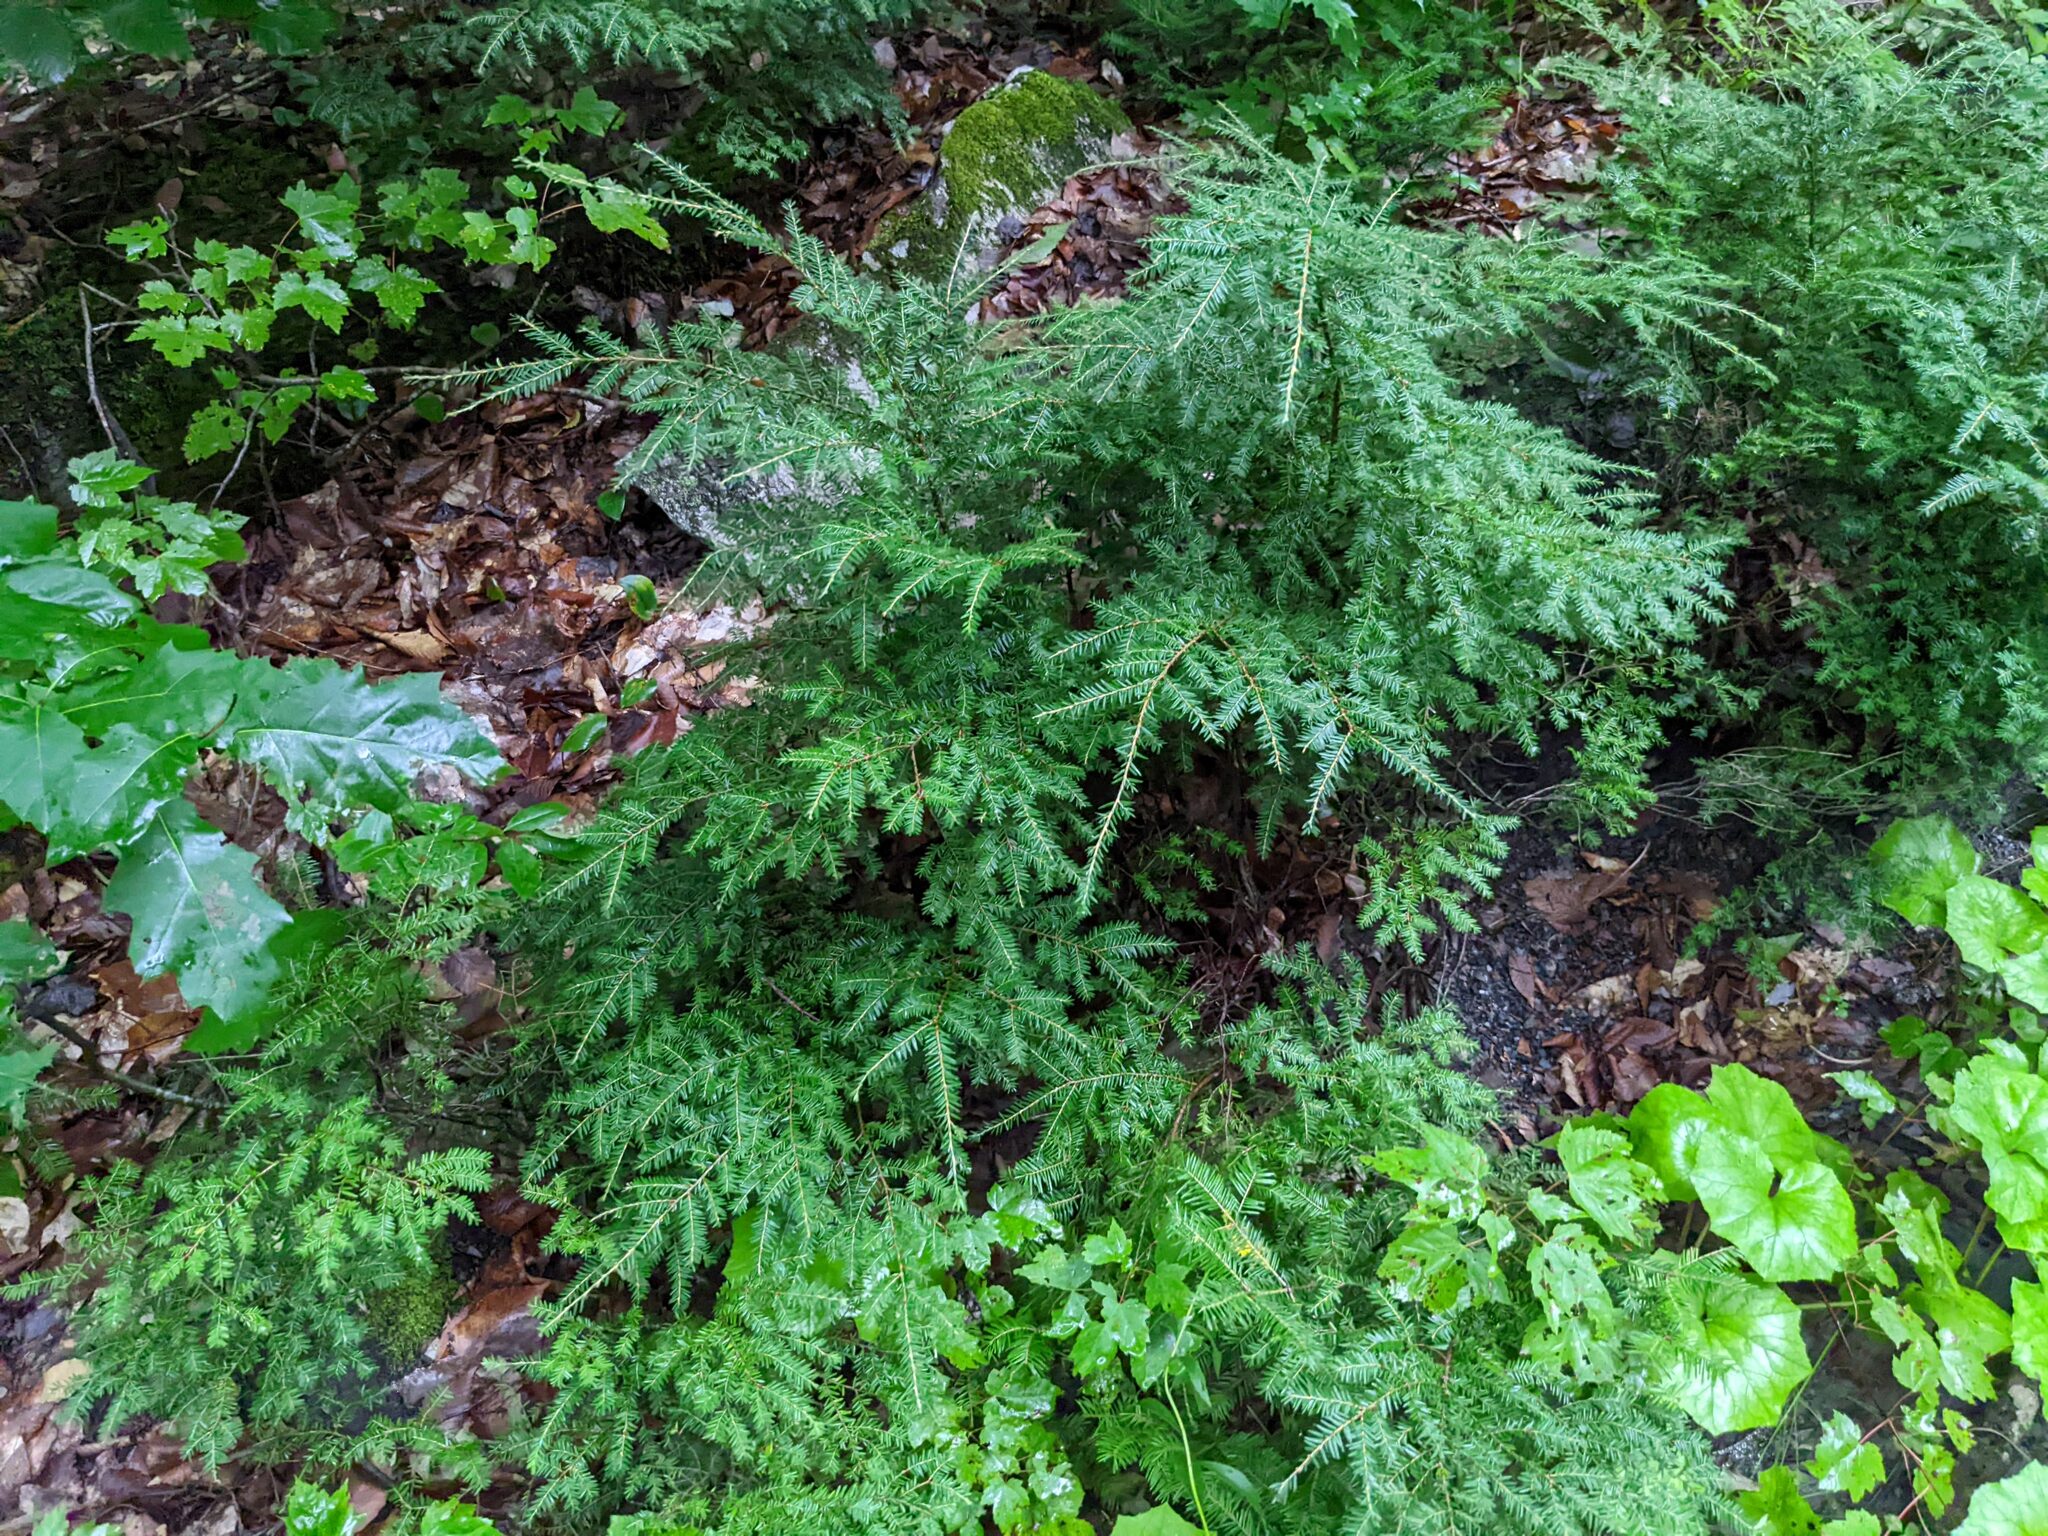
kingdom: Plantae
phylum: Tracheophyta
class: Pinopsida
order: Pinales
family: Pinaceae
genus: Tsuga
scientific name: Tsuga canadensis
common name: Eastern hemlock
